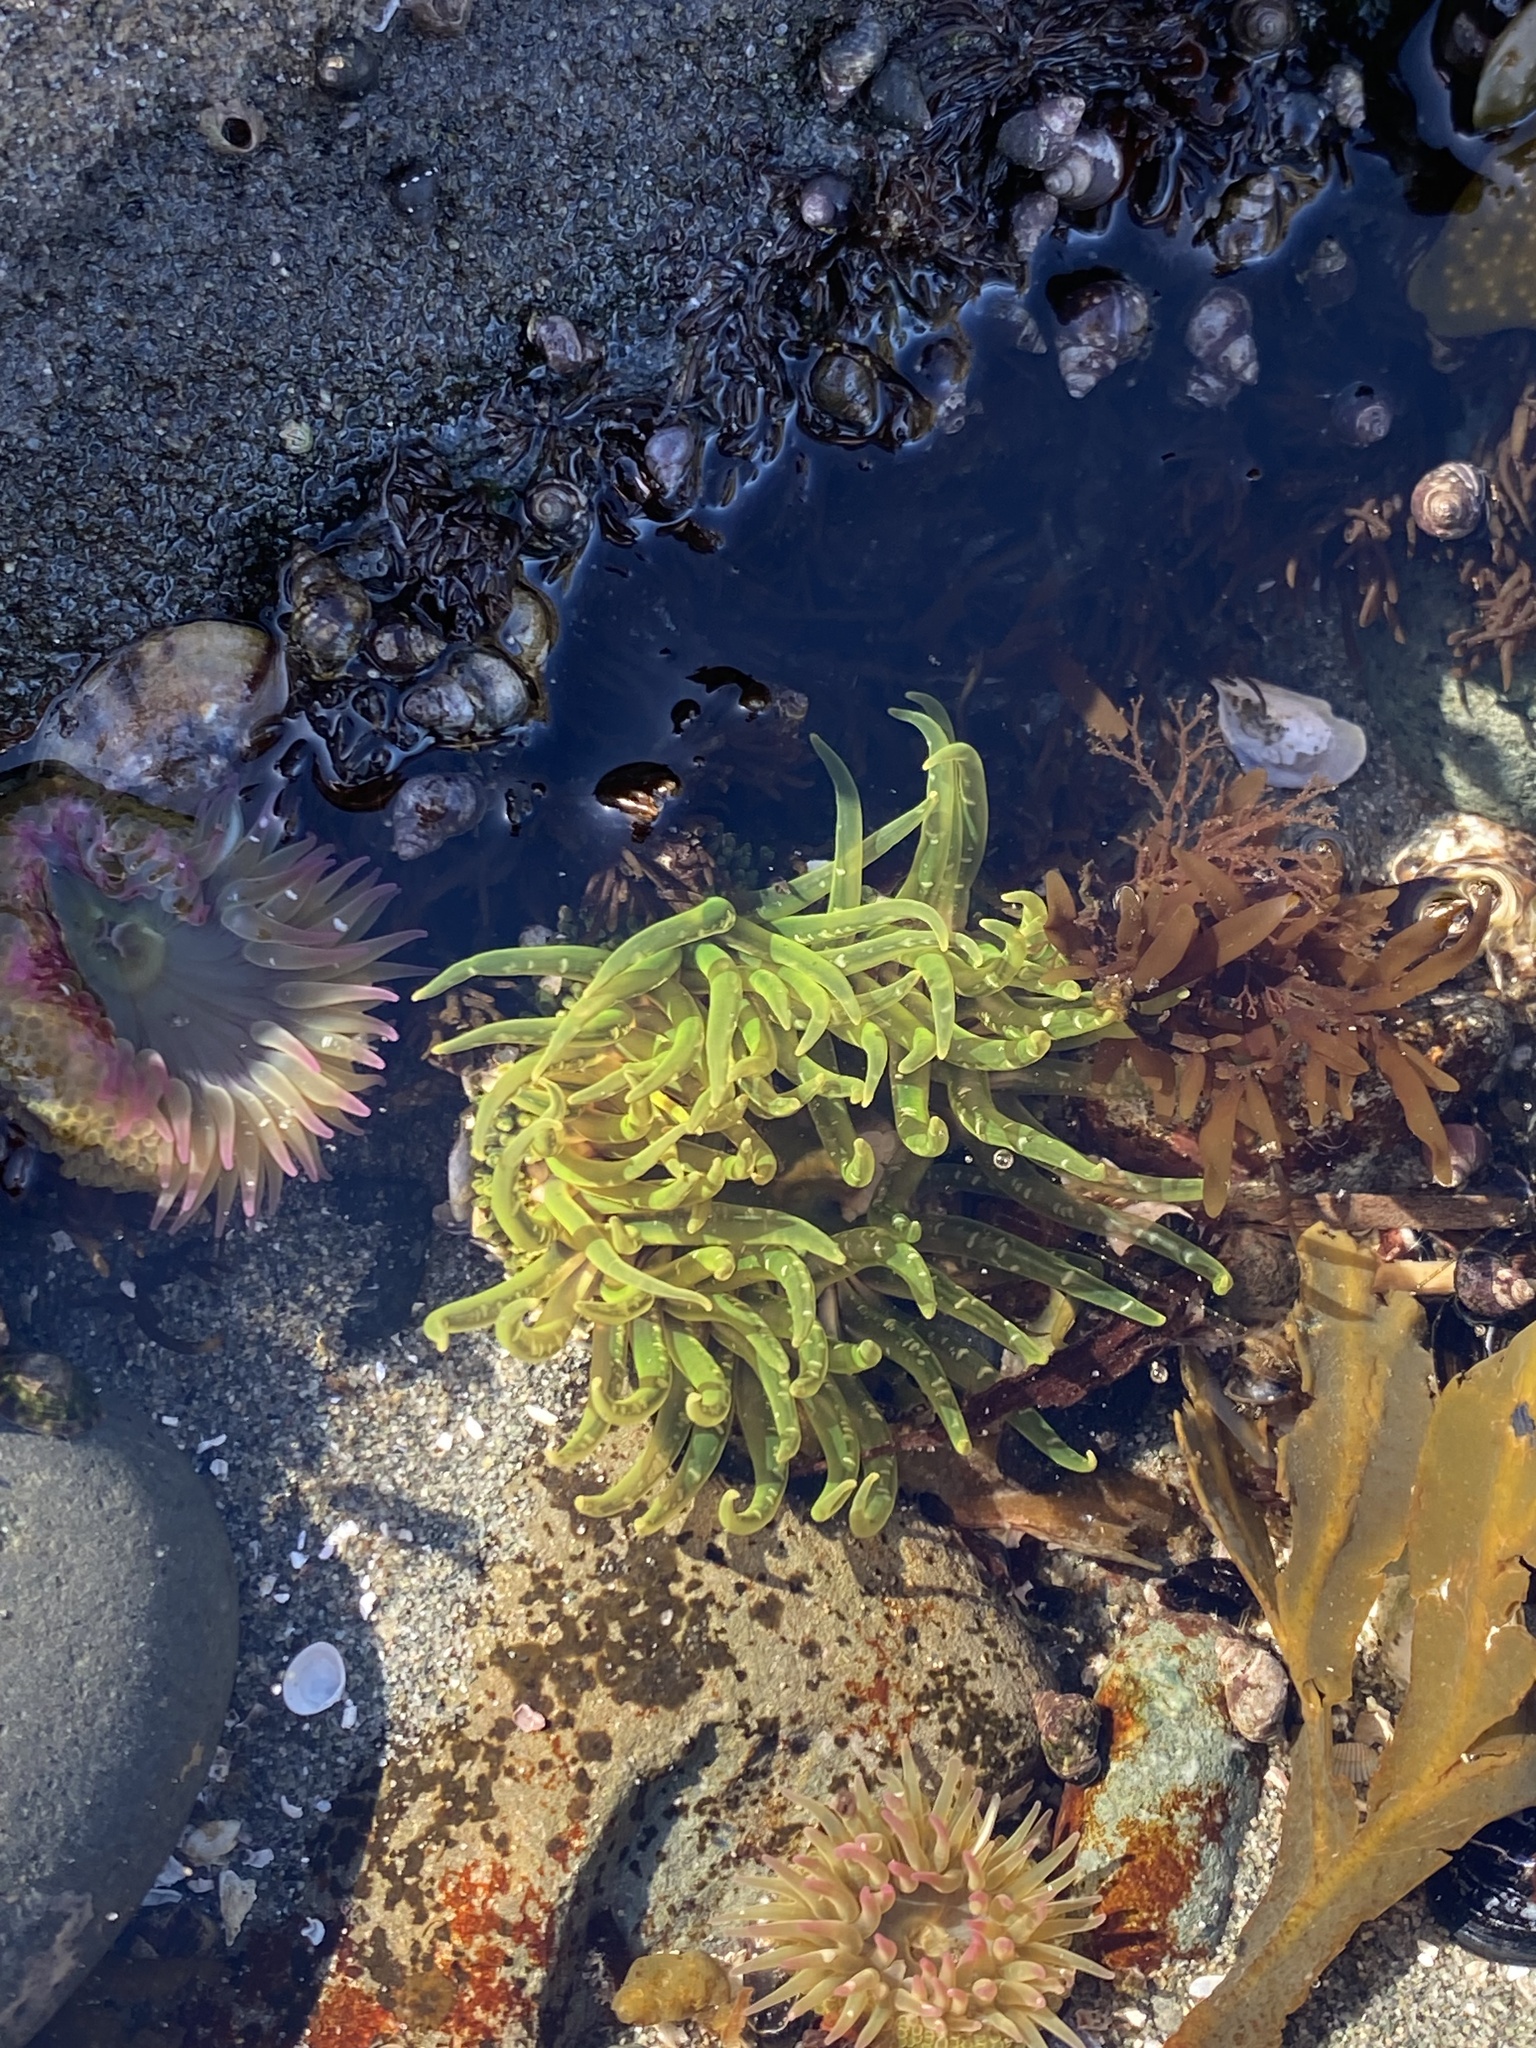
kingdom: Animalia
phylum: Cnidaria
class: Anthozoa
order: Actiniaria
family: Actiniidae
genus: Anthopleura
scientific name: Anthopleura artemisia
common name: Buried sea anemone
